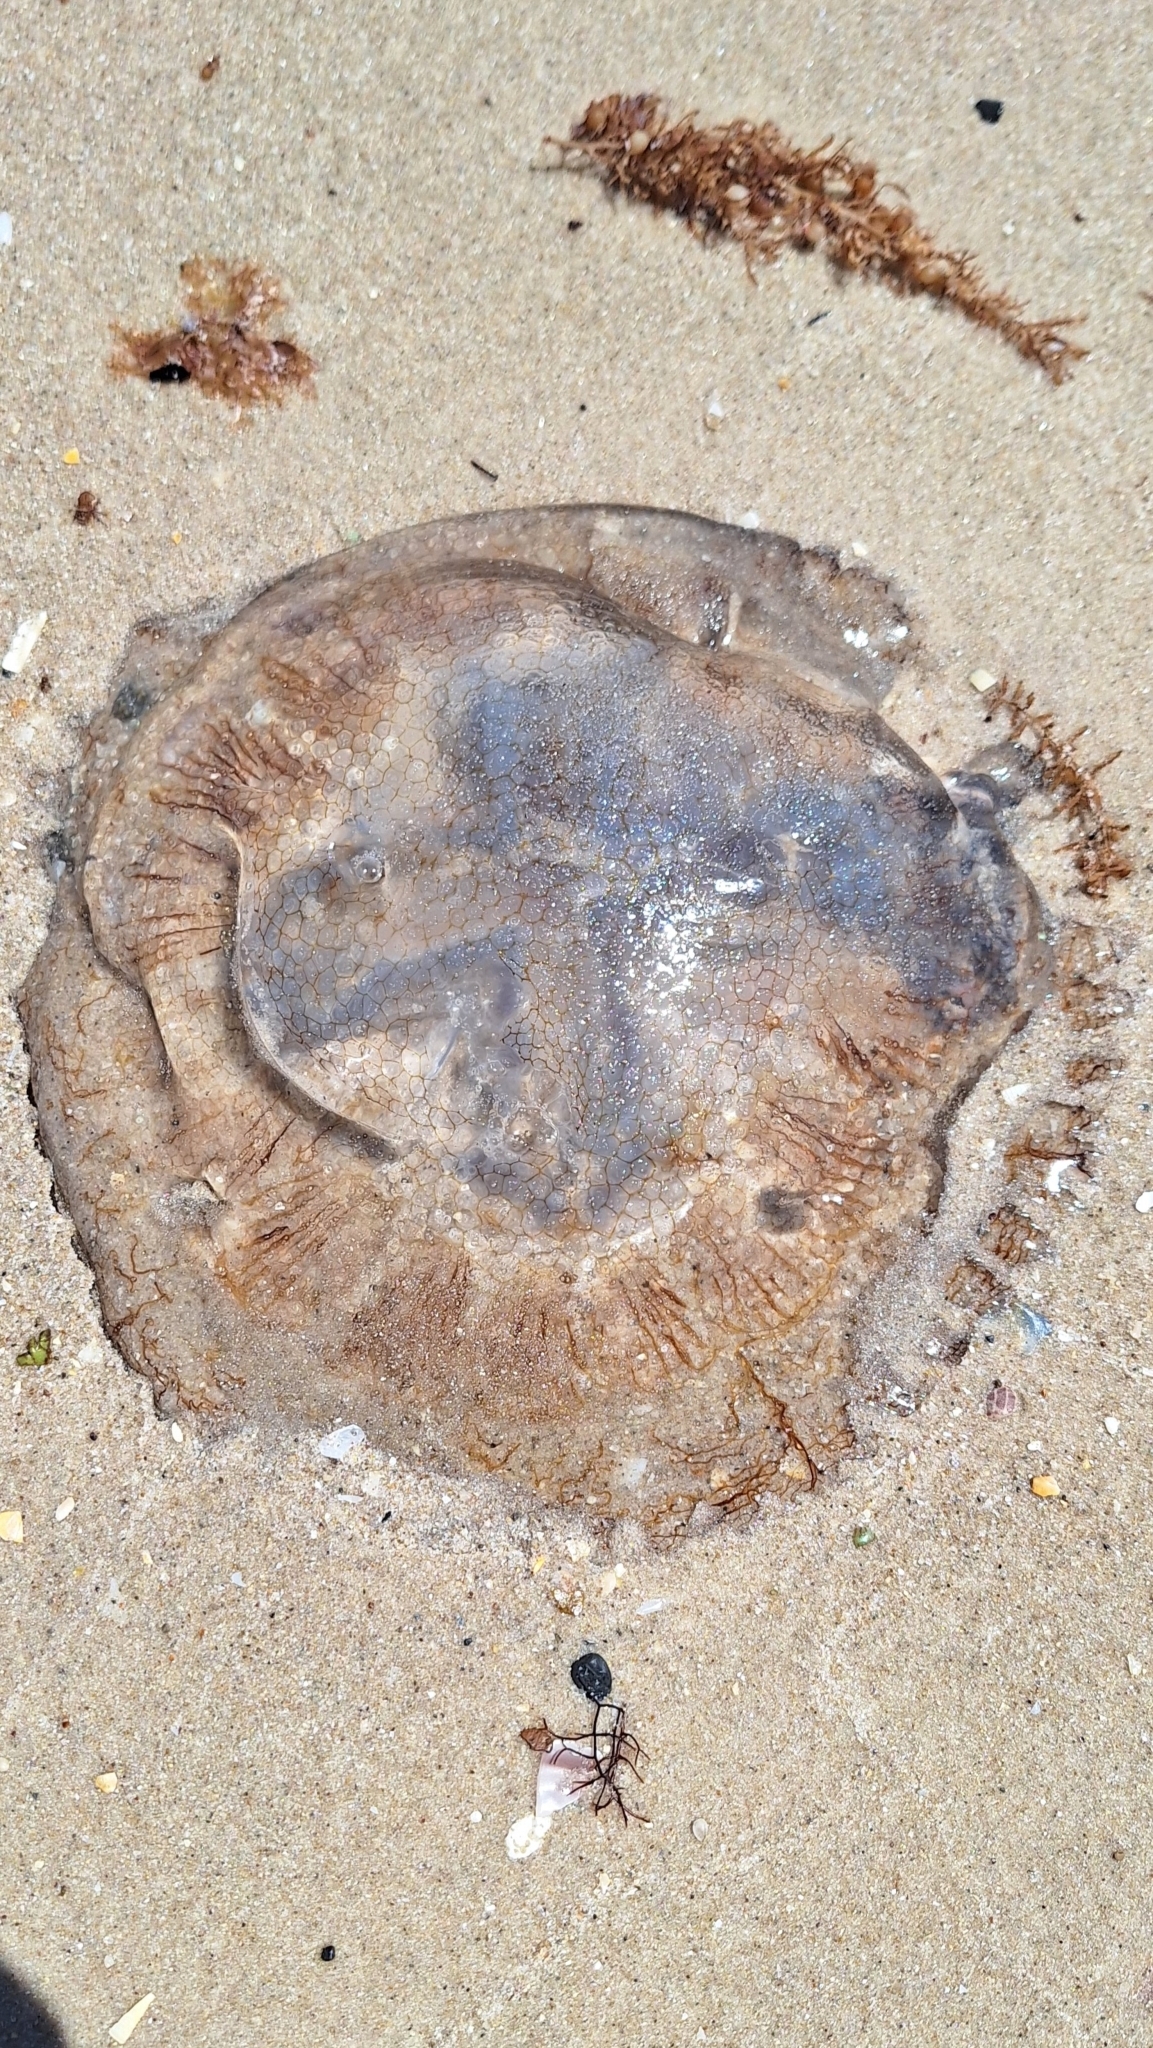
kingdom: Animalia
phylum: Cnidaria
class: Scyphozoa
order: Rhizostomeae
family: Lychnorhizidae
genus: Pseudorhiza
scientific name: Pseudorhiza haeckeli
